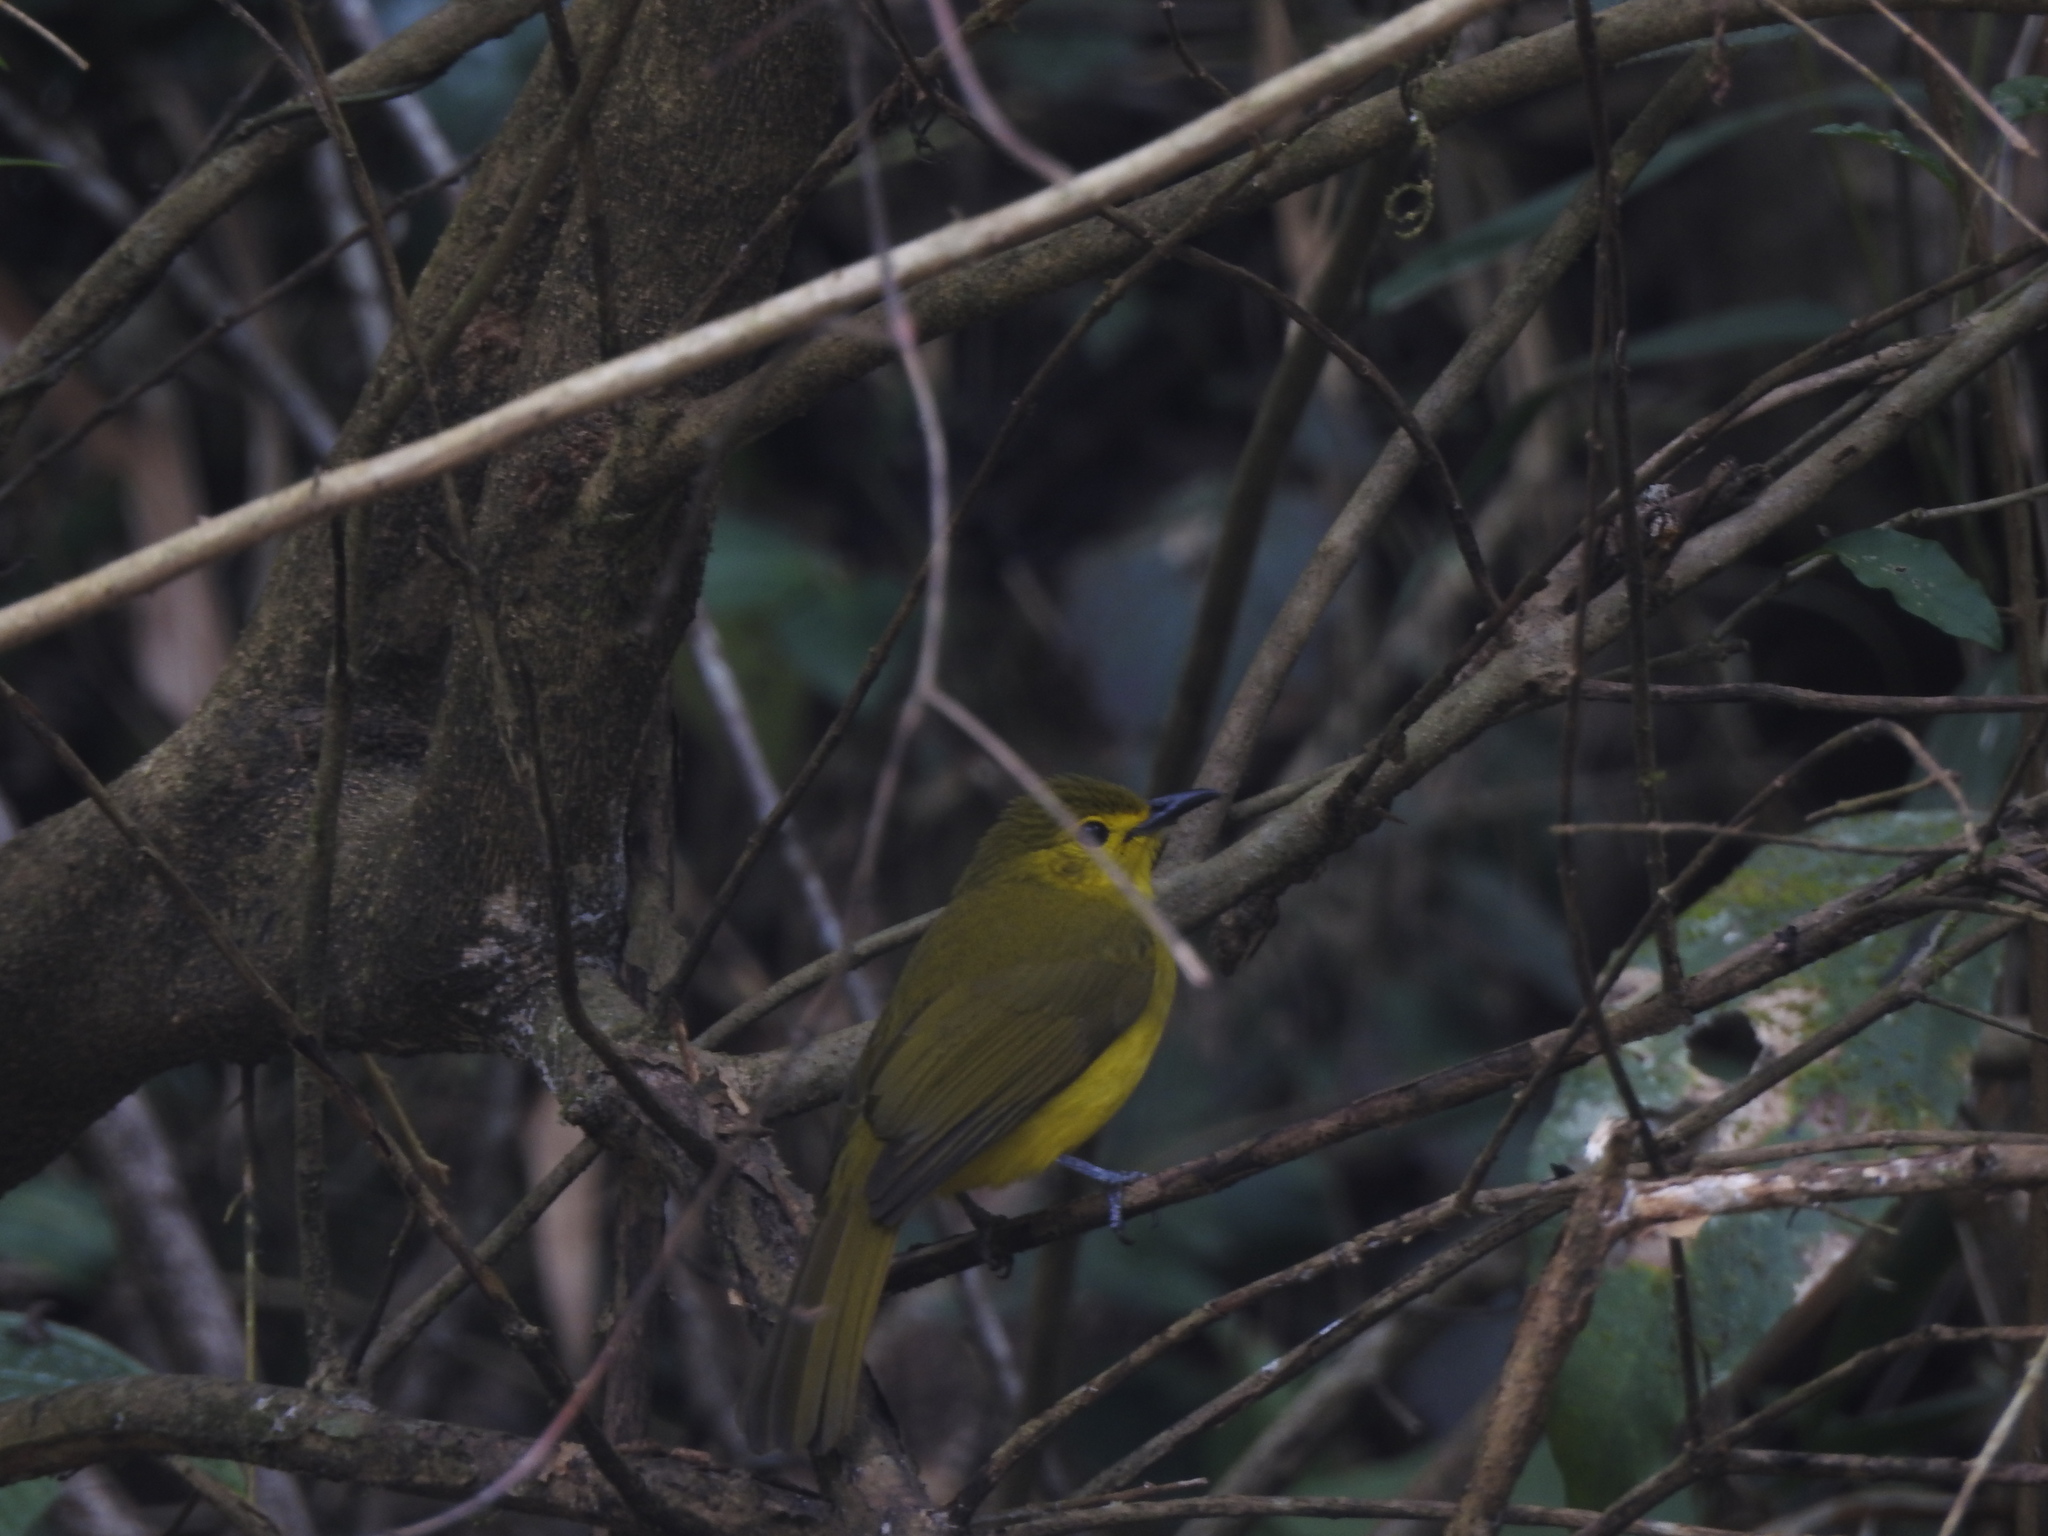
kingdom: Animalia
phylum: Chordata
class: Aves
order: Passeriformes
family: Pycnonotidae
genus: Acritillas
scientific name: Acritillas indica
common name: Yellow-browed bulbul
